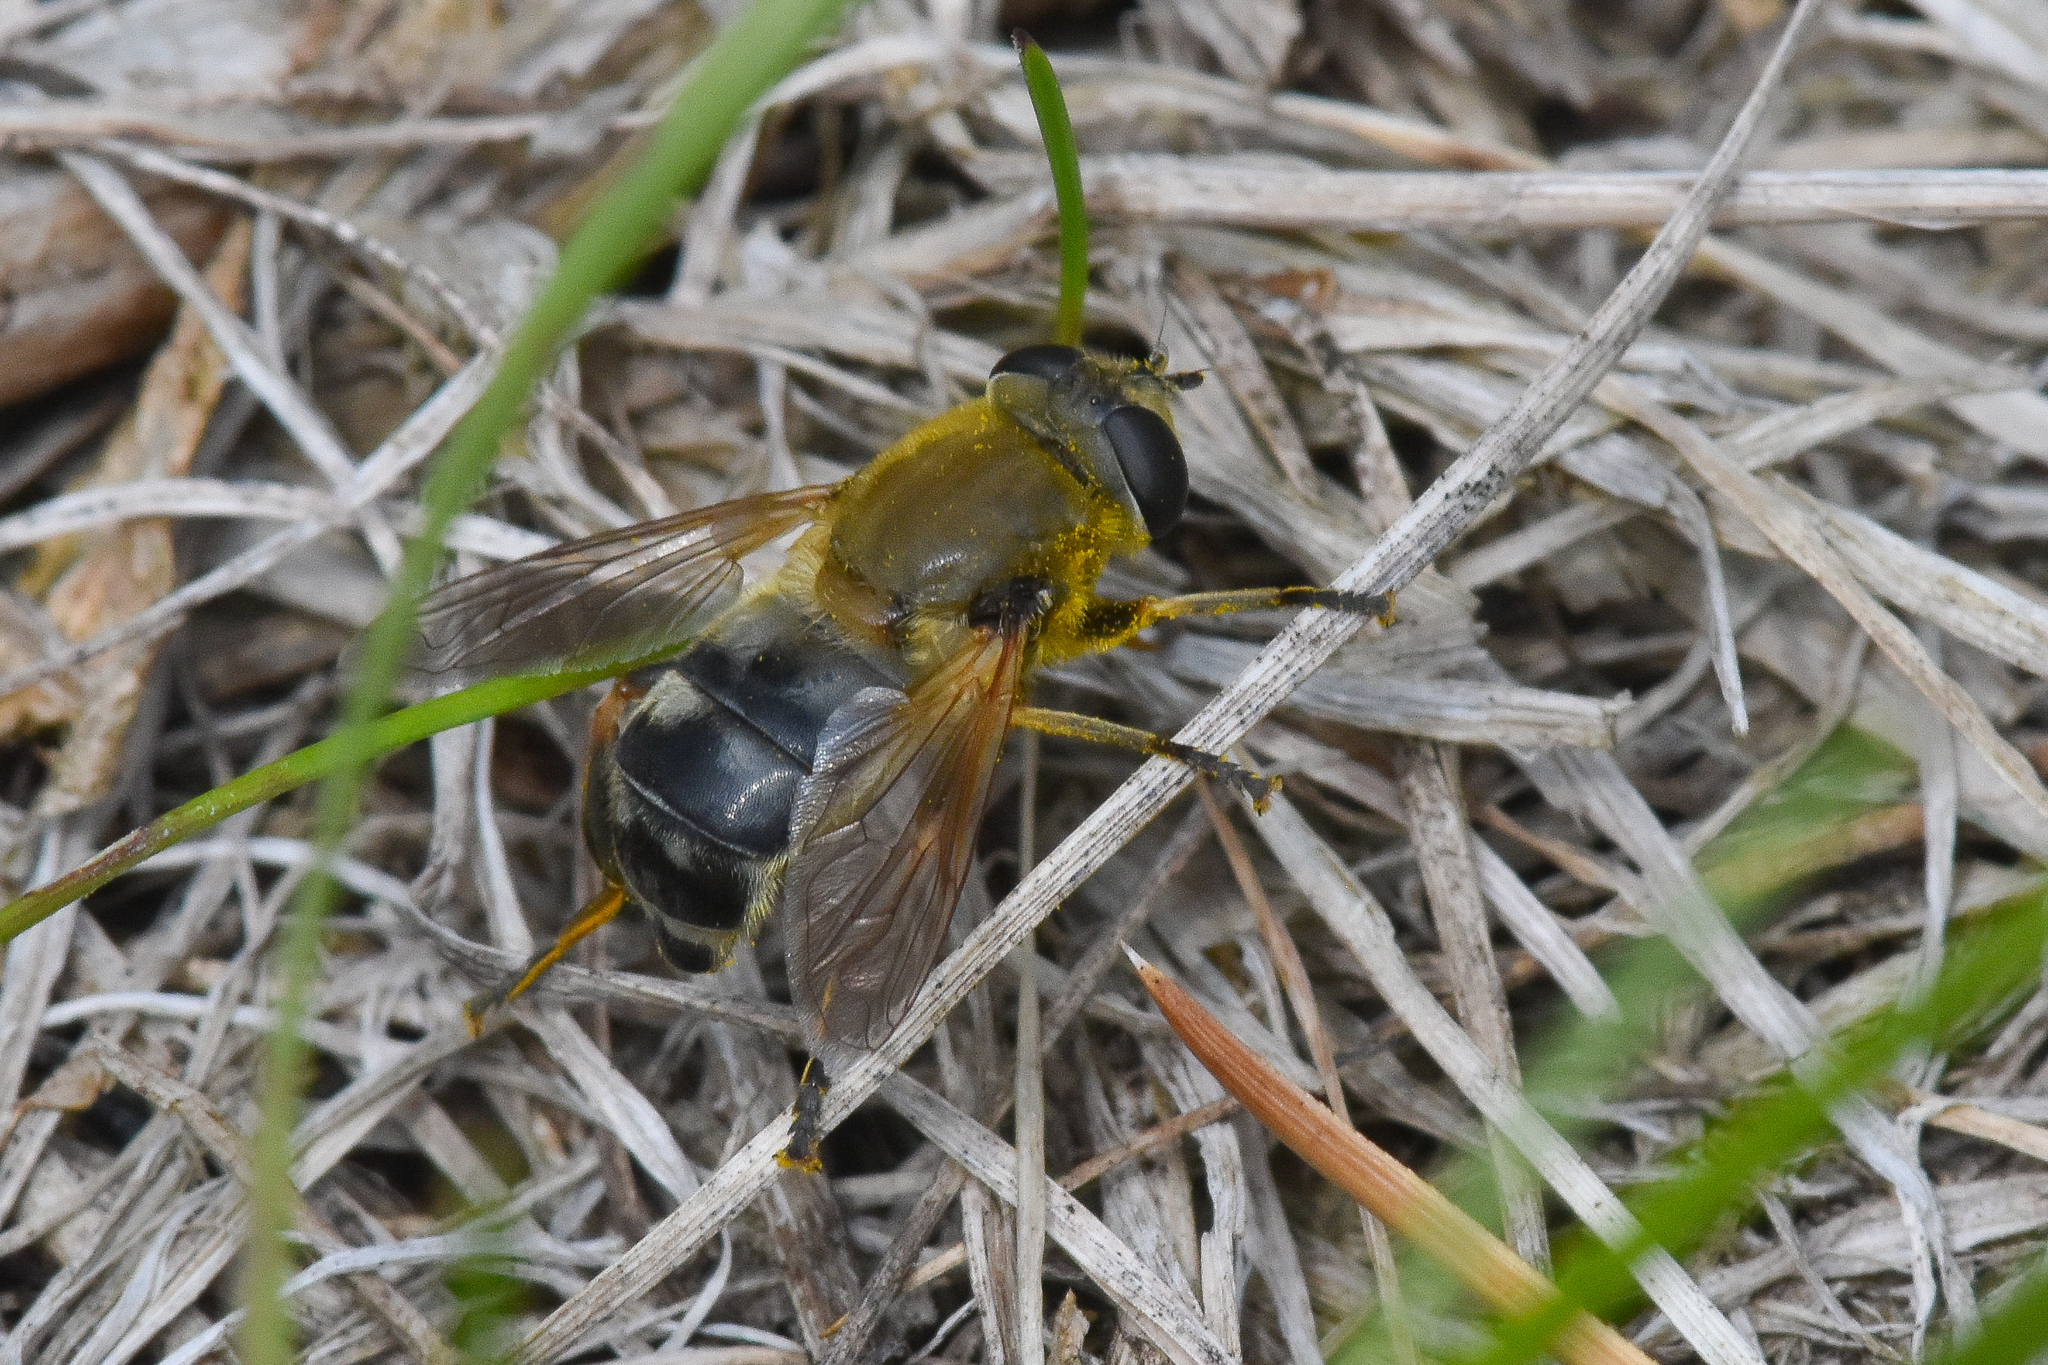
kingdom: Animalia
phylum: Arthropoda
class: Insecta
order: Diptera
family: Syrphidae
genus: Polydontomyia
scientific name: Polydontomyia curvipes
